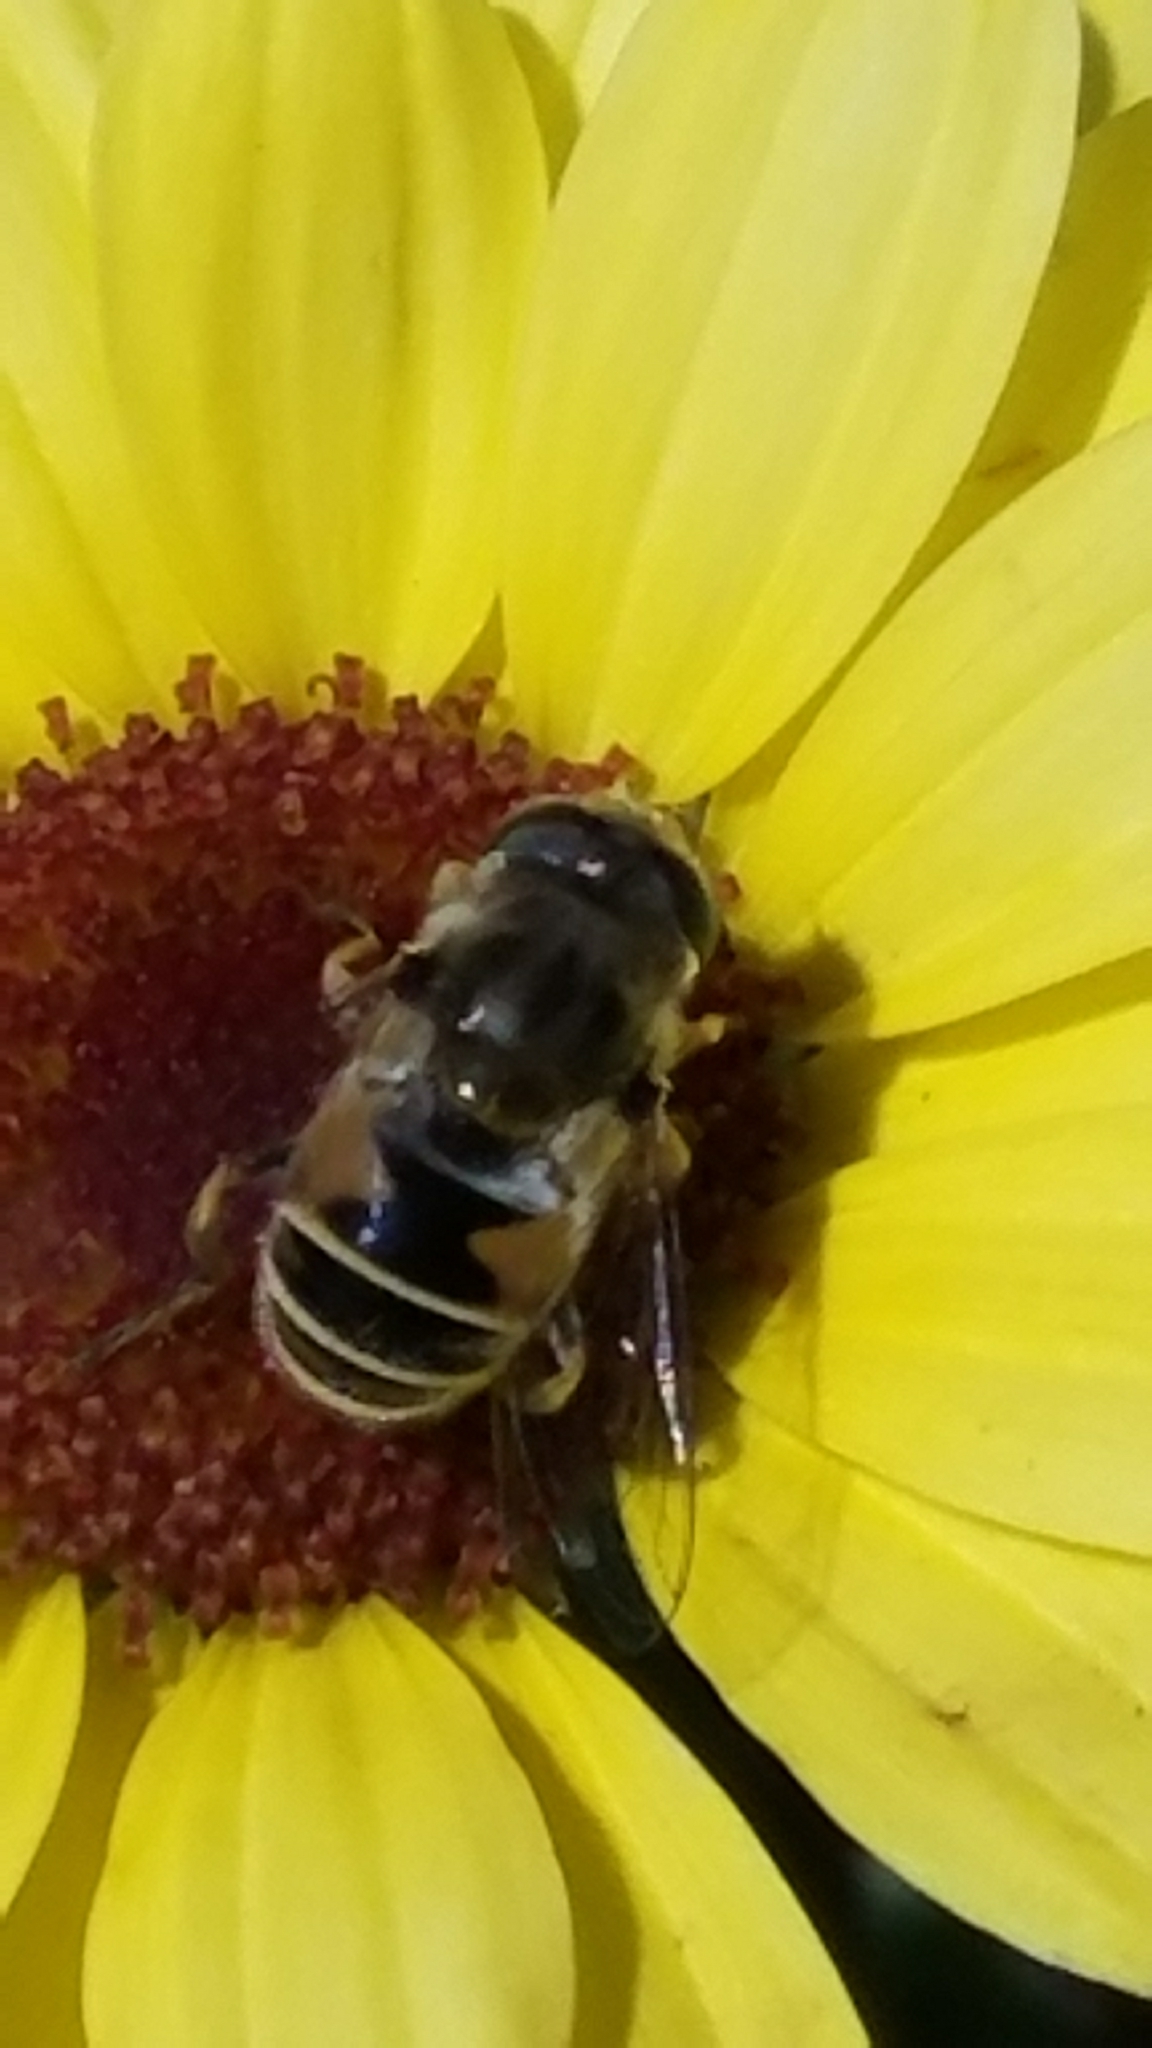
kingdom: Animalia
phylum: Arthropoda
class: Insecta
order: Diptera
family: Syrphidae
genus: Eoseristalis
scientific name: Eoseristalis
